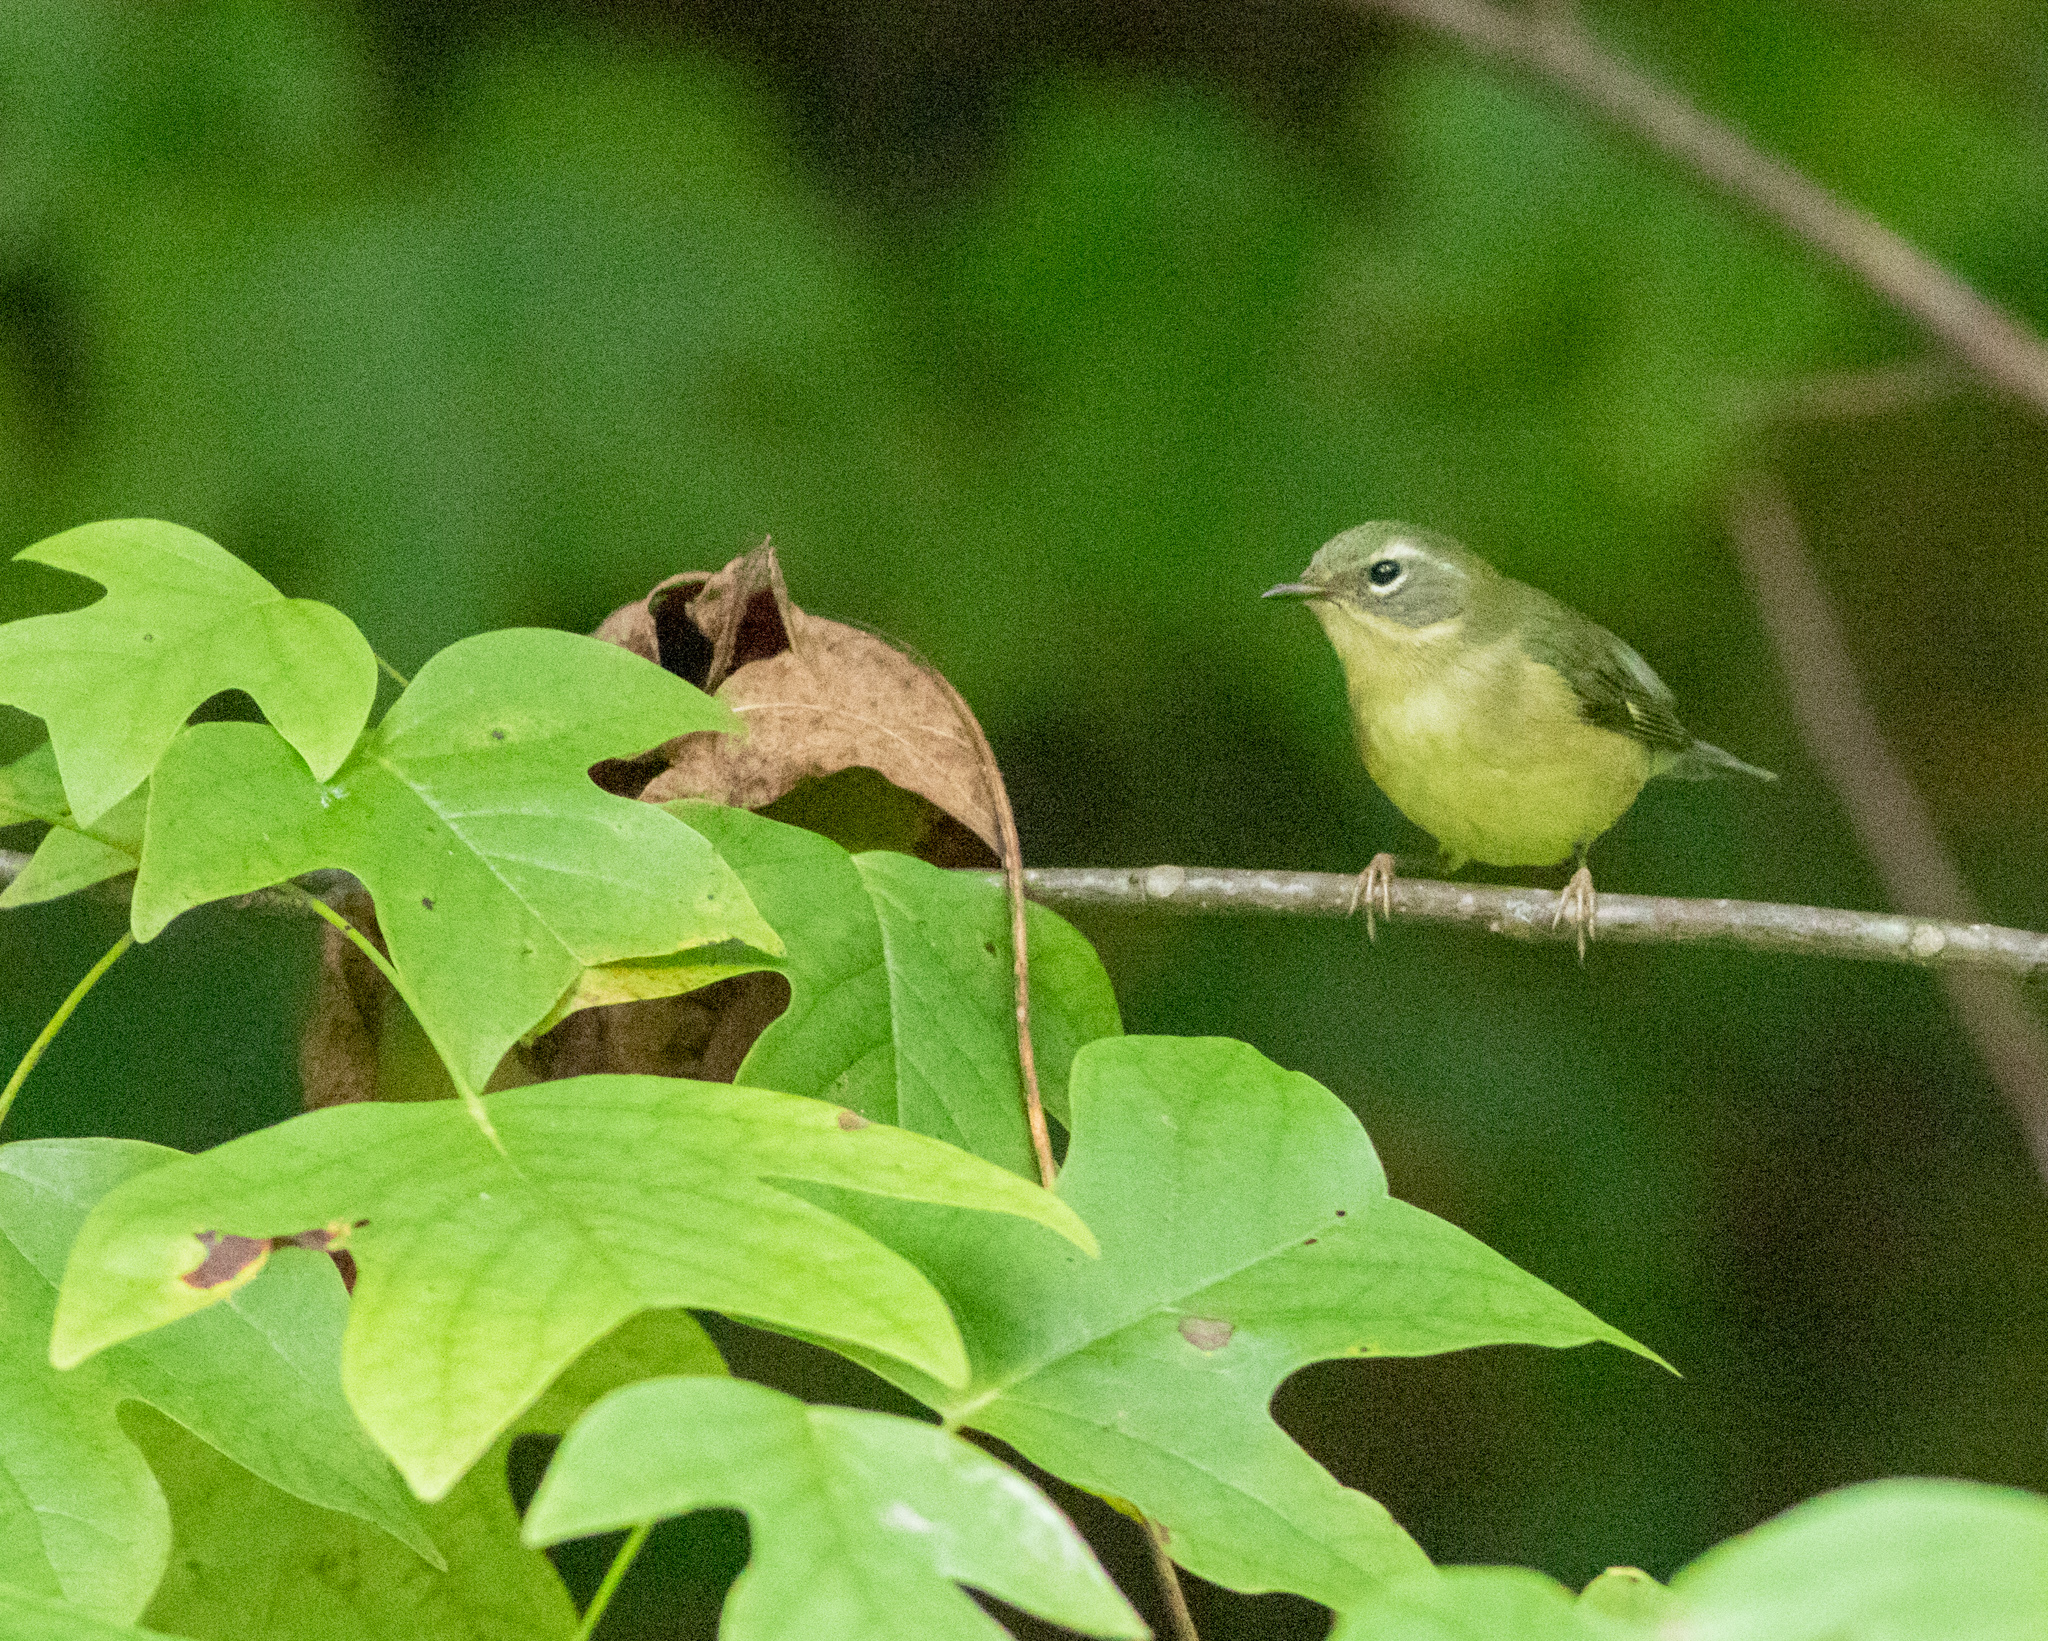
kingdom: Animalia
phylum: Chordata
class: Aves
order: Passeriformes
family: Parulidae
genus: Setophaga
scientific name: Setophaga caerulescens
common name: Black-throated blue warbler
